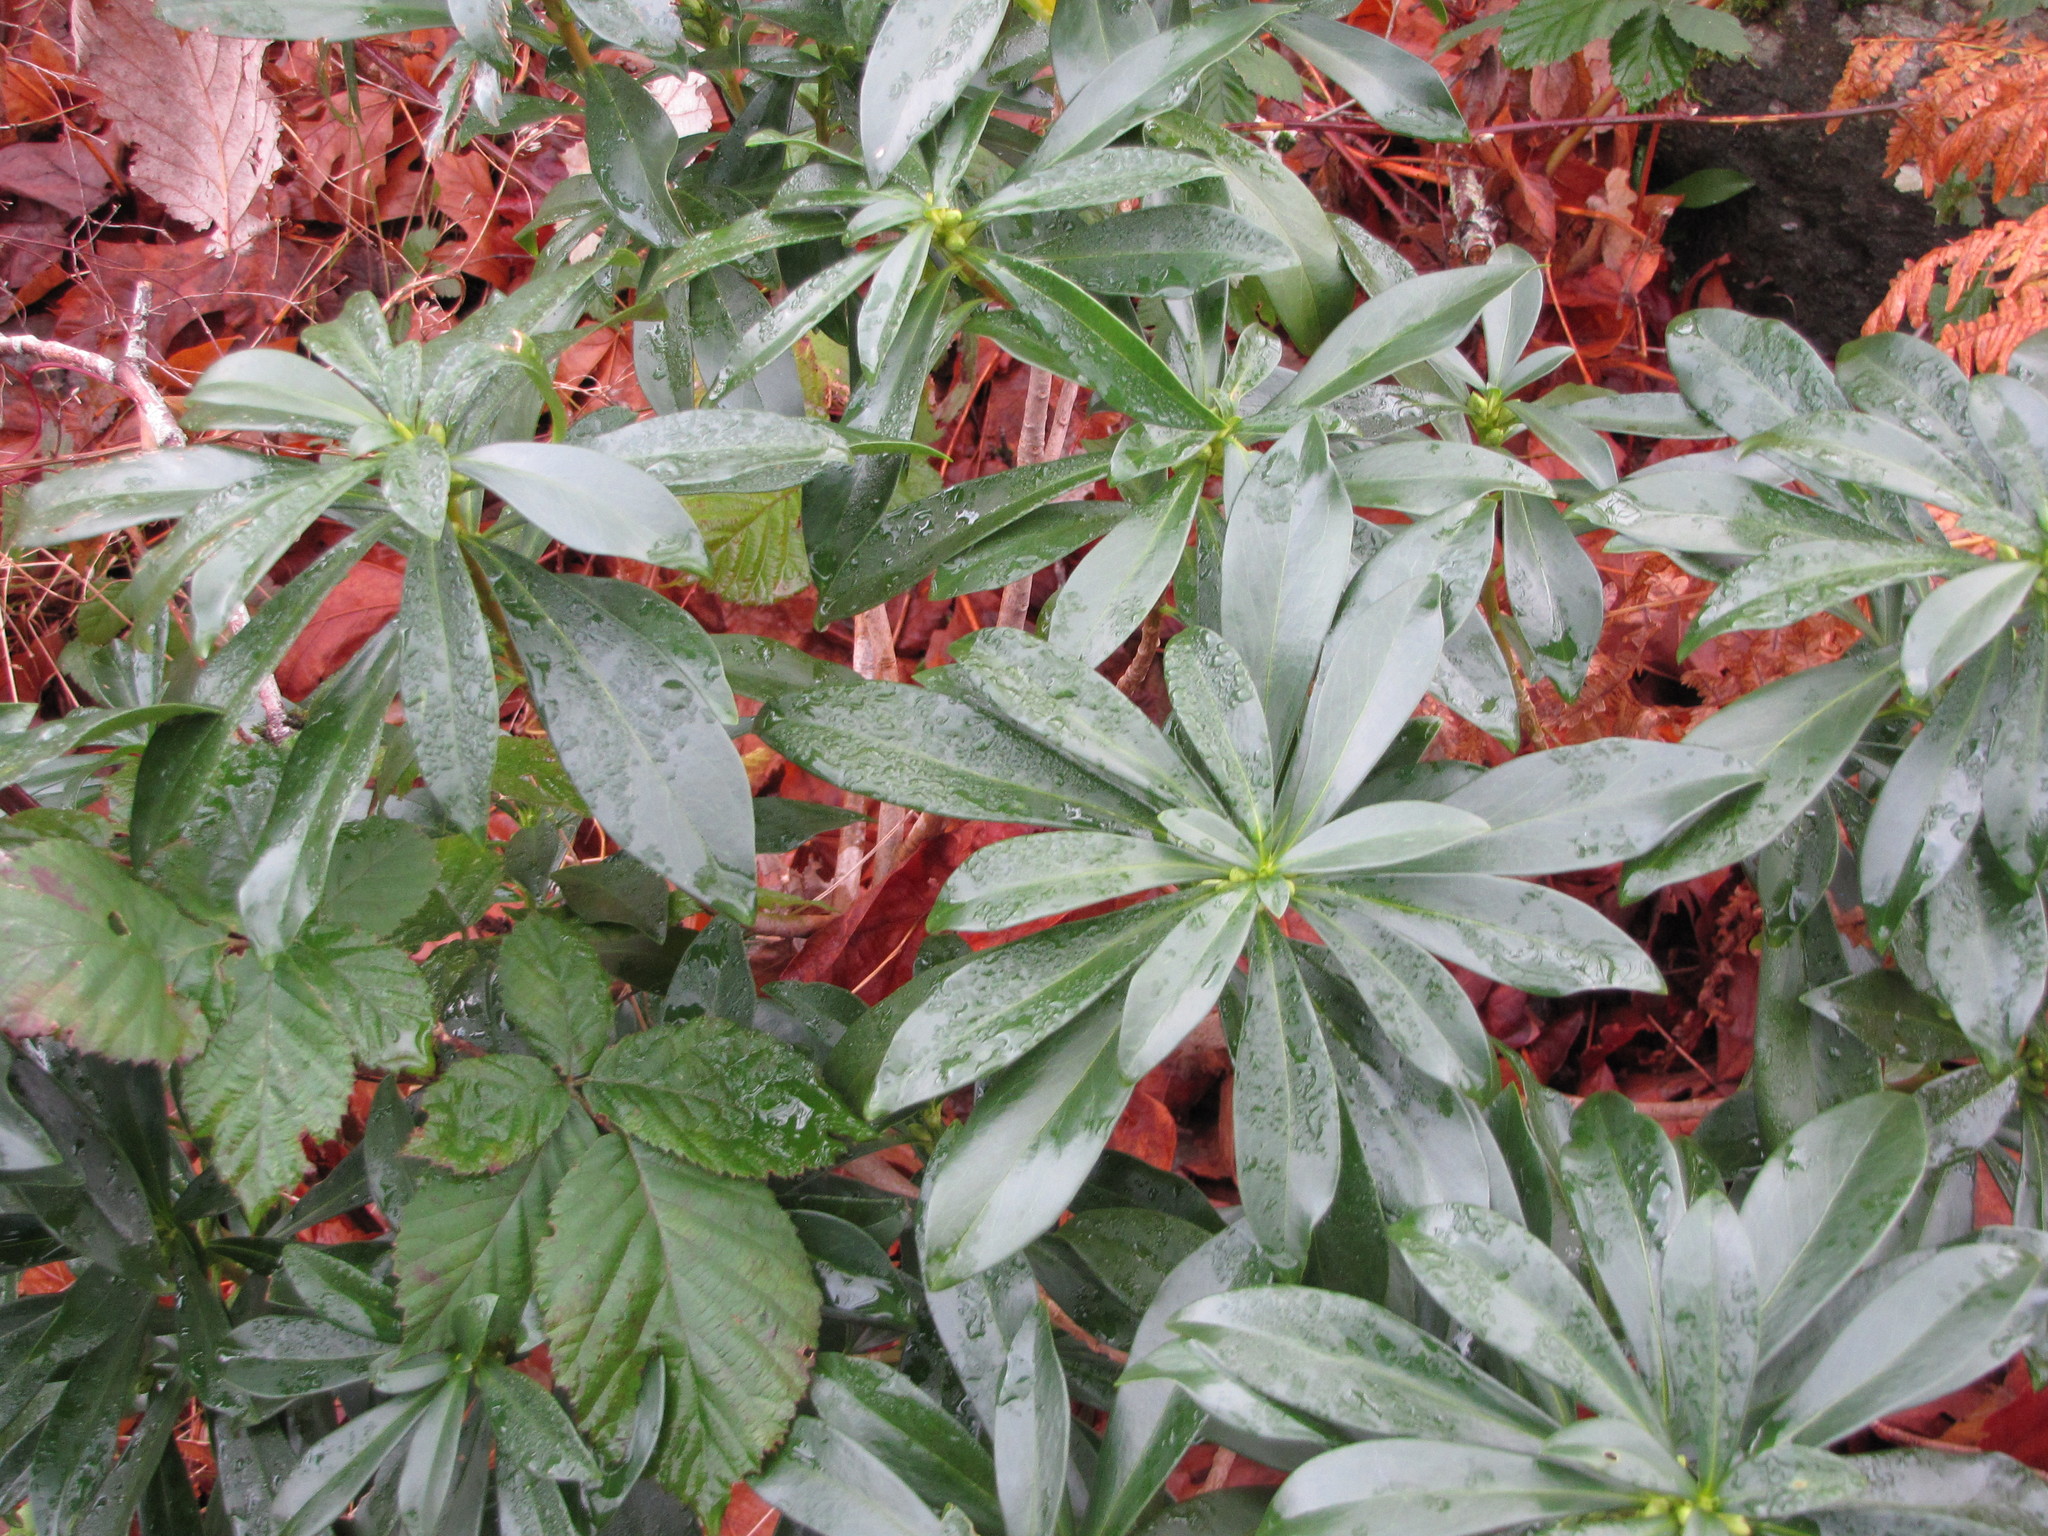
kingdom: Plantae
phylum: Tracheophyta
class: Magnoliopsida
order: Malvales
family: Thymelaeaceae
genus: Daphne
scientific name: Daphne laureola
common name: Spurge-laurel
